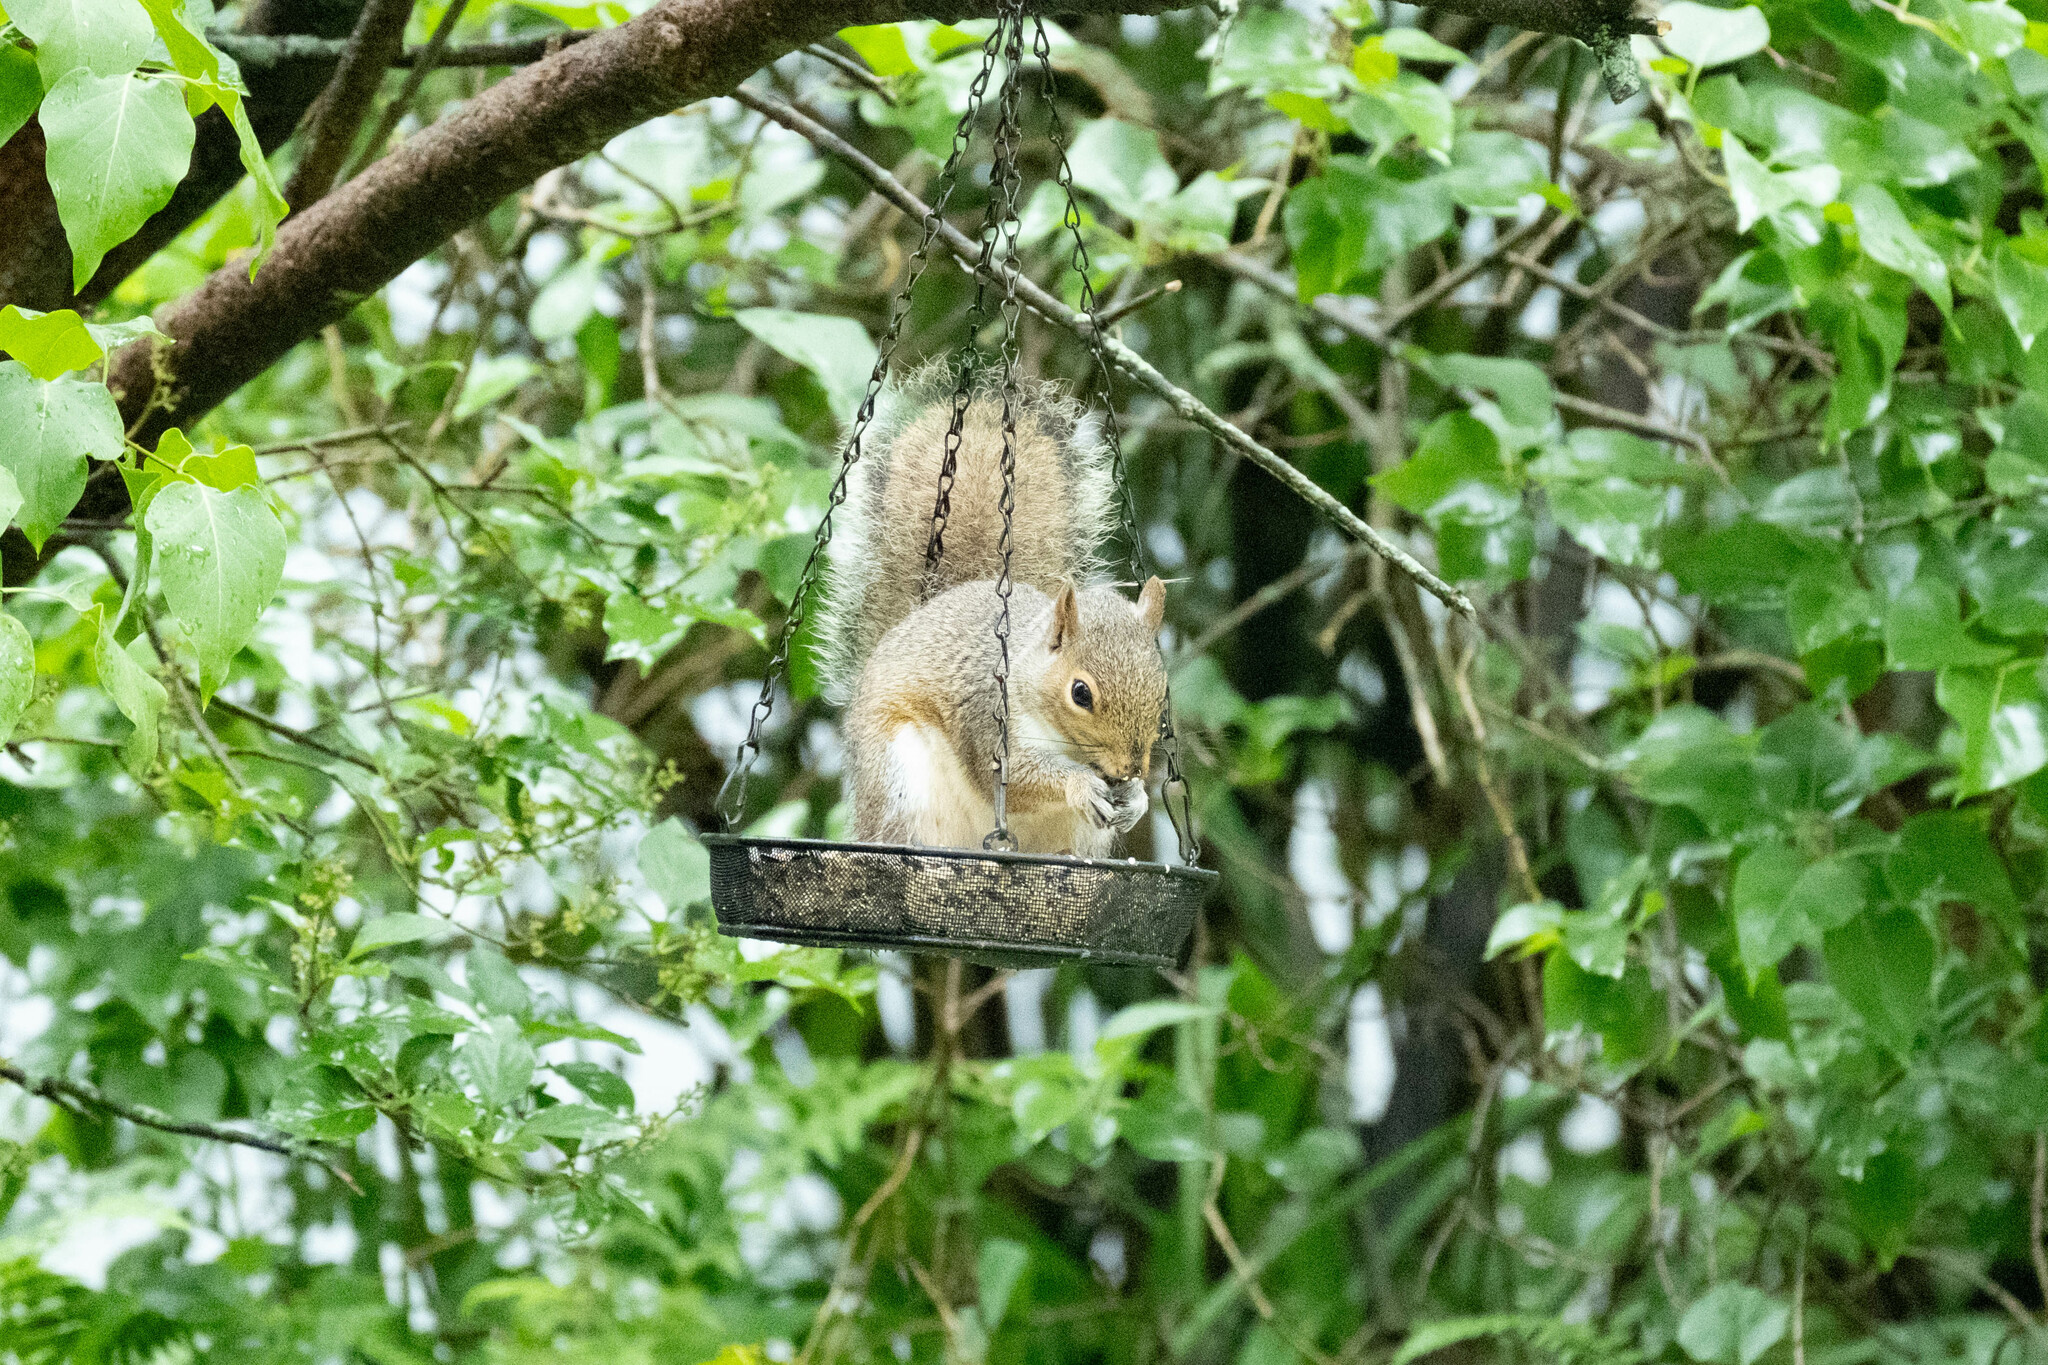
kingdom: Animalia
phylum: Chordata
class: Mammalia
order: Rodentia
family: Sciuridae
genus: Sciurus
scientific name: Sciurus carolinensis
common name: Eastern gray squirrel
